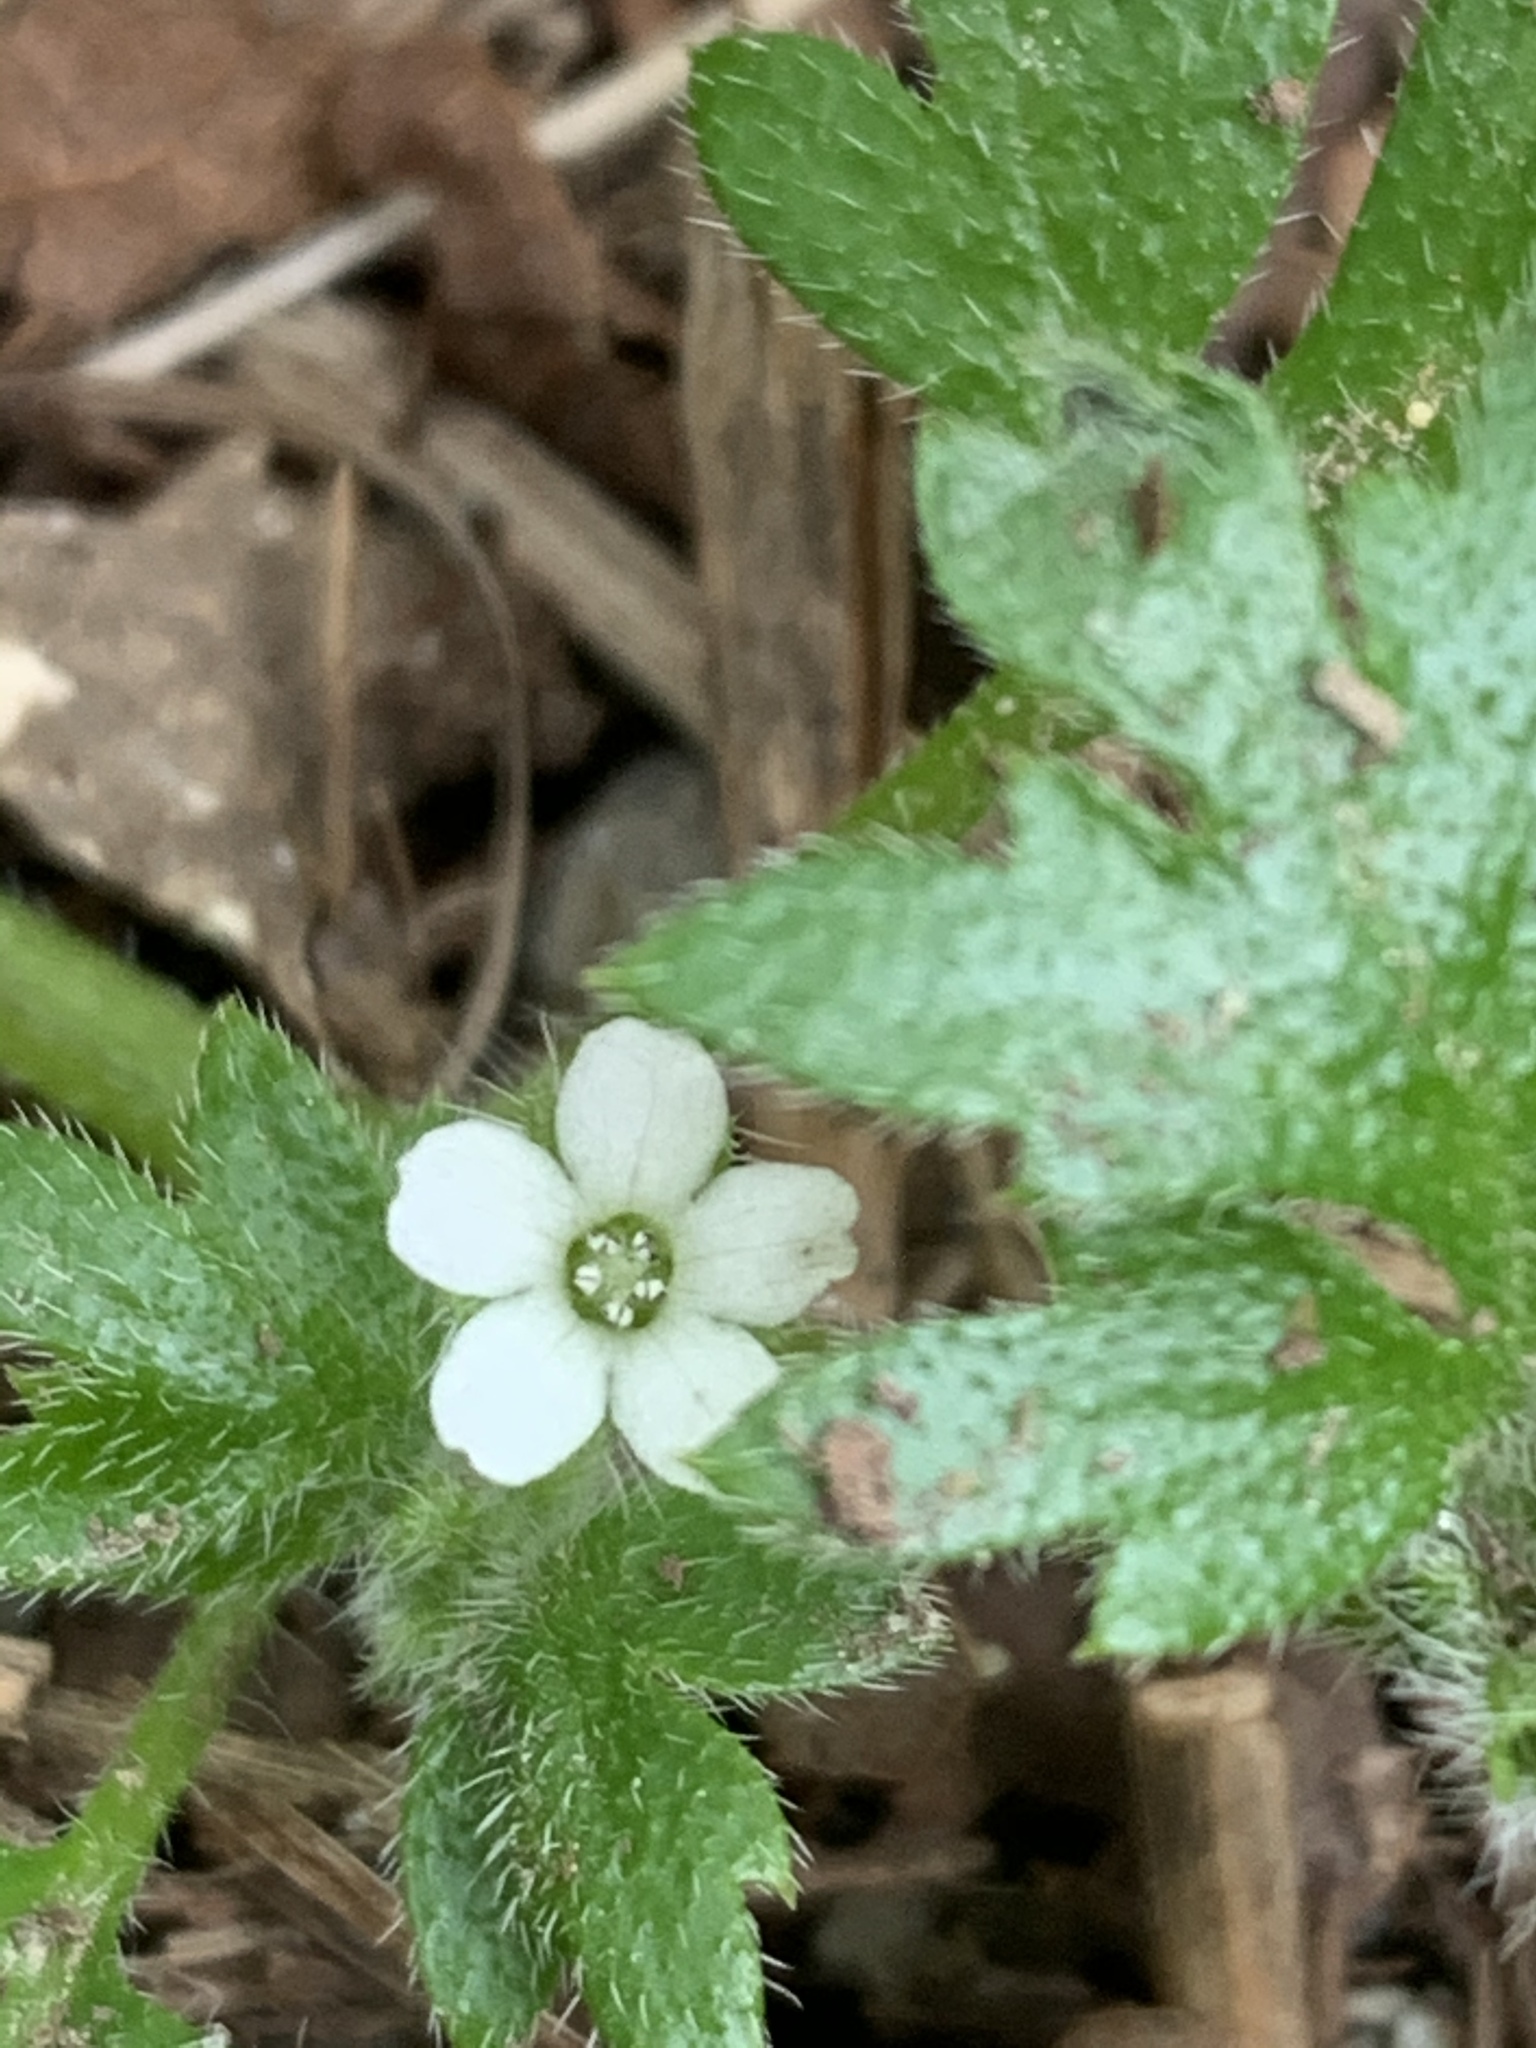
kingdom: Plantae
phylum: Tracheophyta
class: Magnoliopsida
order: Boraginales
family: Hydrophyllaceae
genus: Nemophila
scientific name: Nemophila parviflora
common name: Small-flowered baby-blue-eyes
